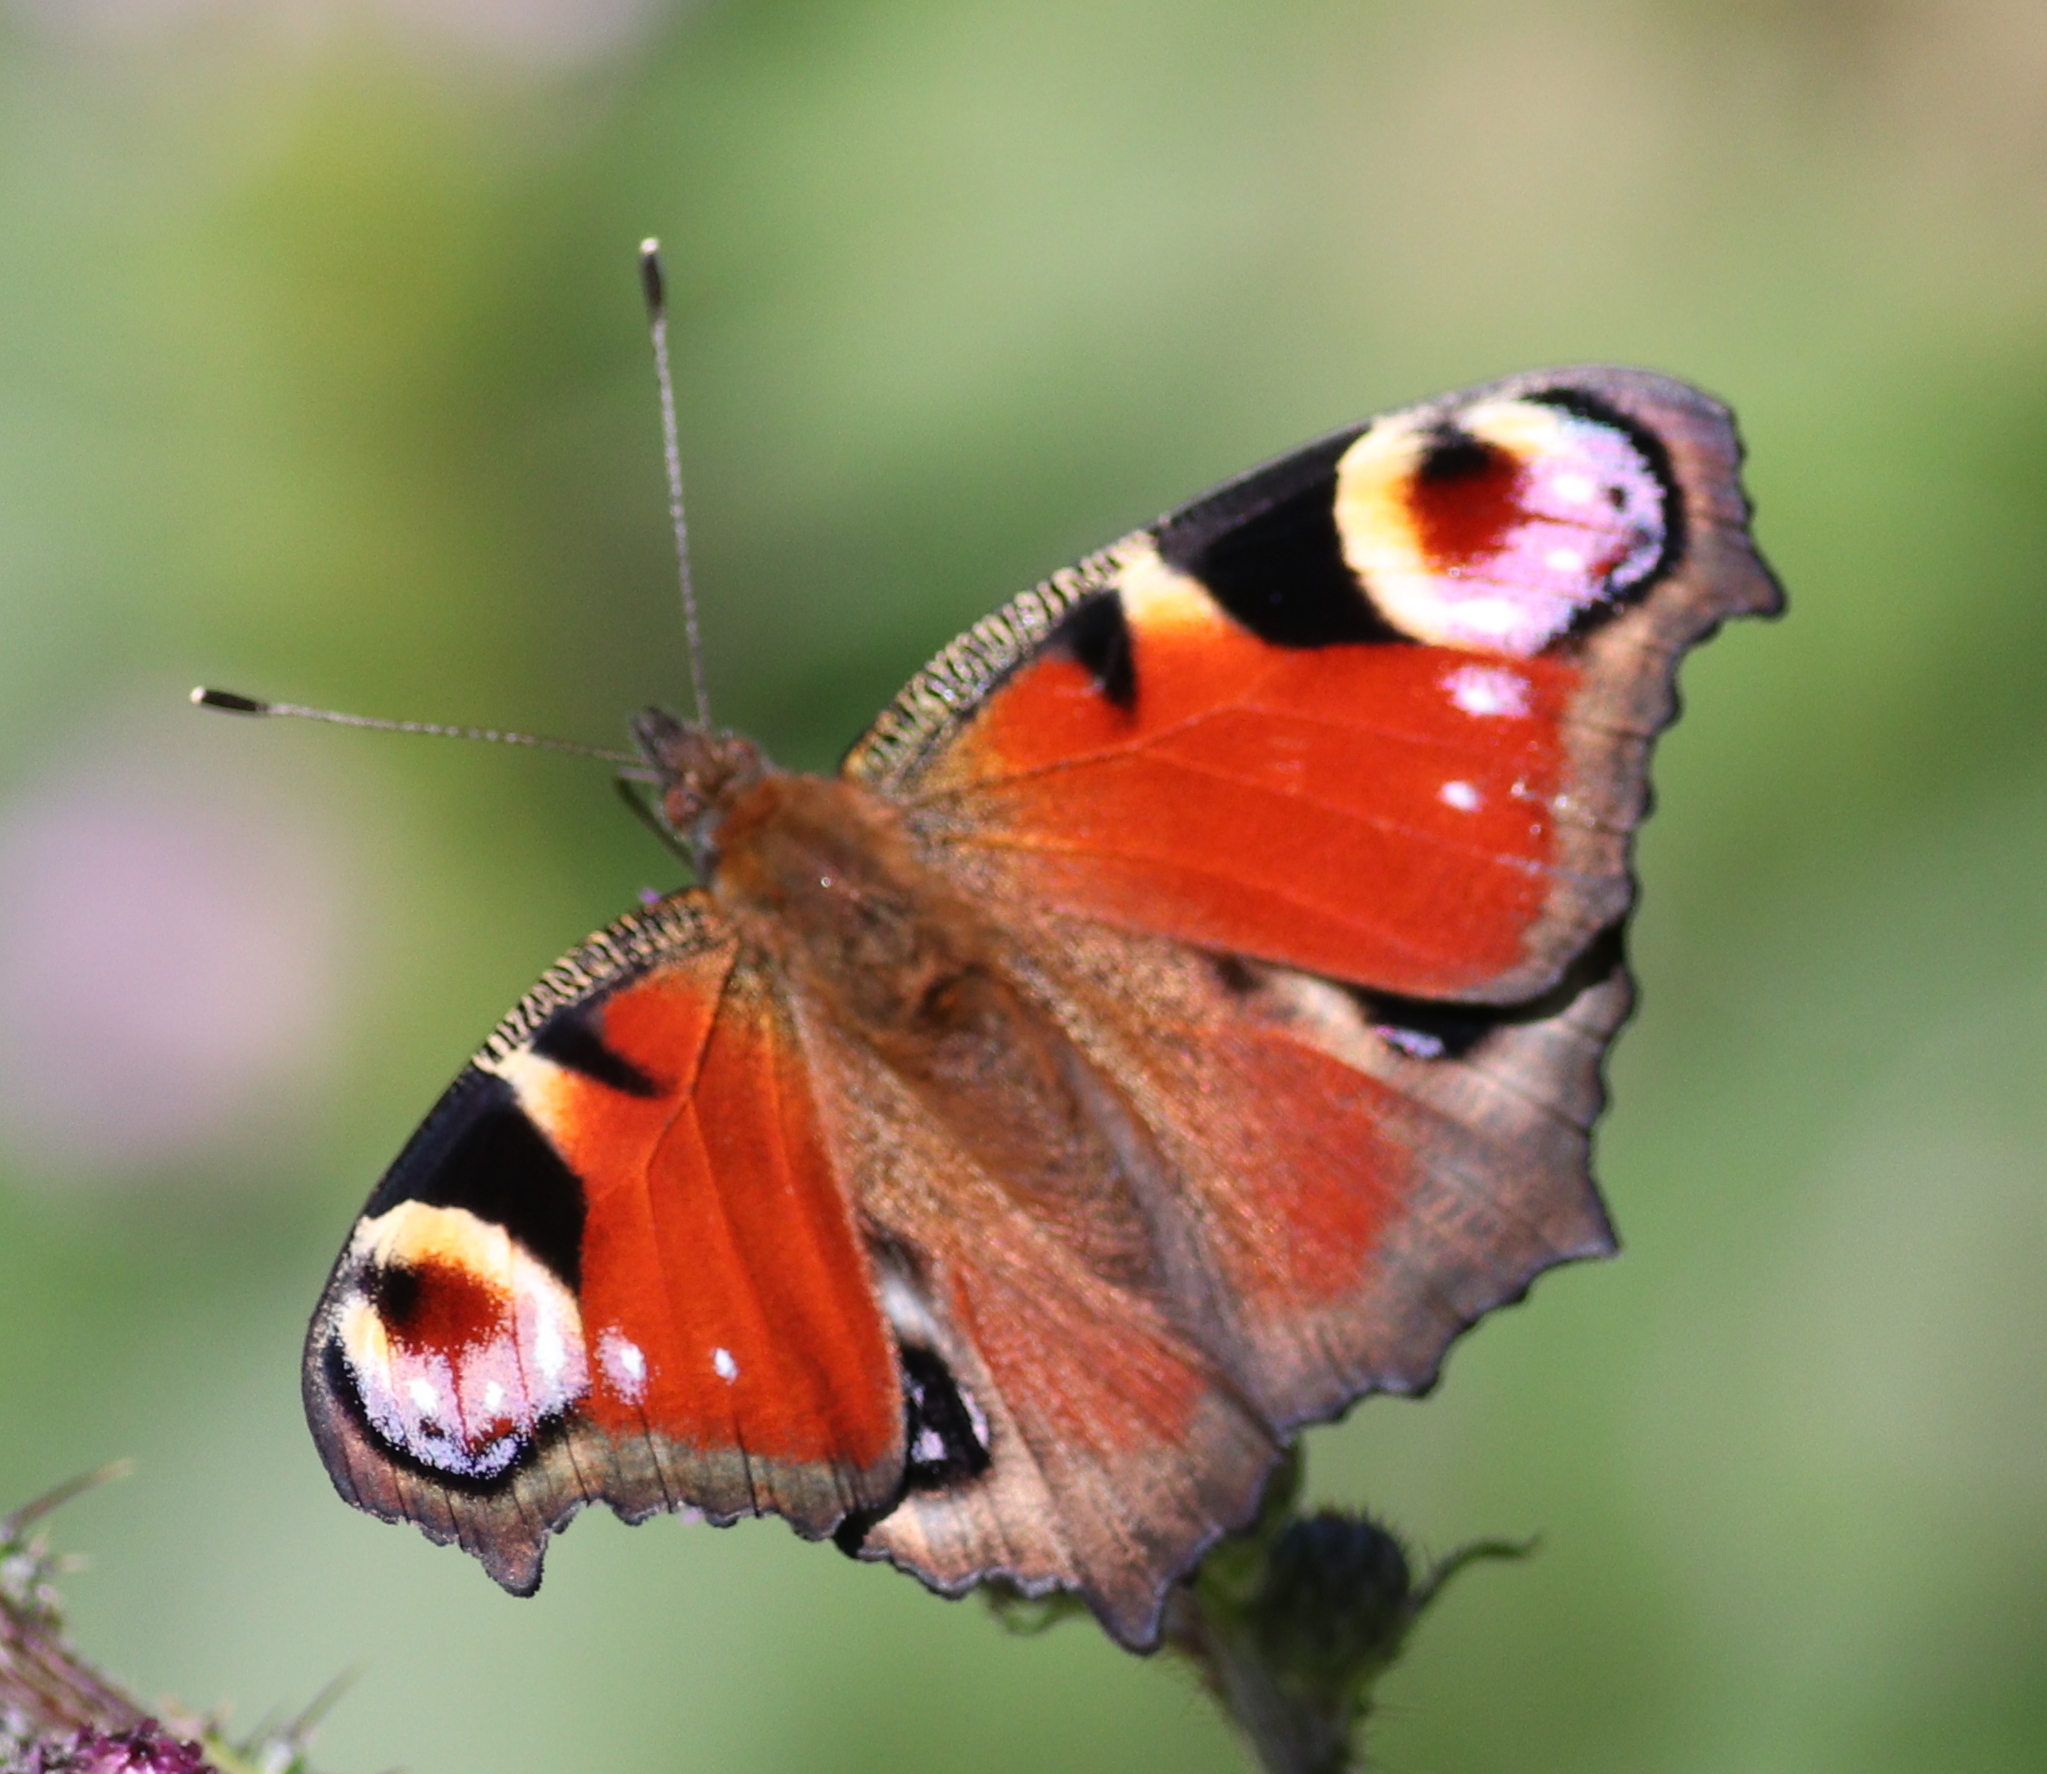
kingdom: Animalia
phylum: Arthropoda
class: Insecta
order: Lepidoptera
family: Nymphalidae
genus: Aglais
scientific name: Aglais io
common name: Peacock
